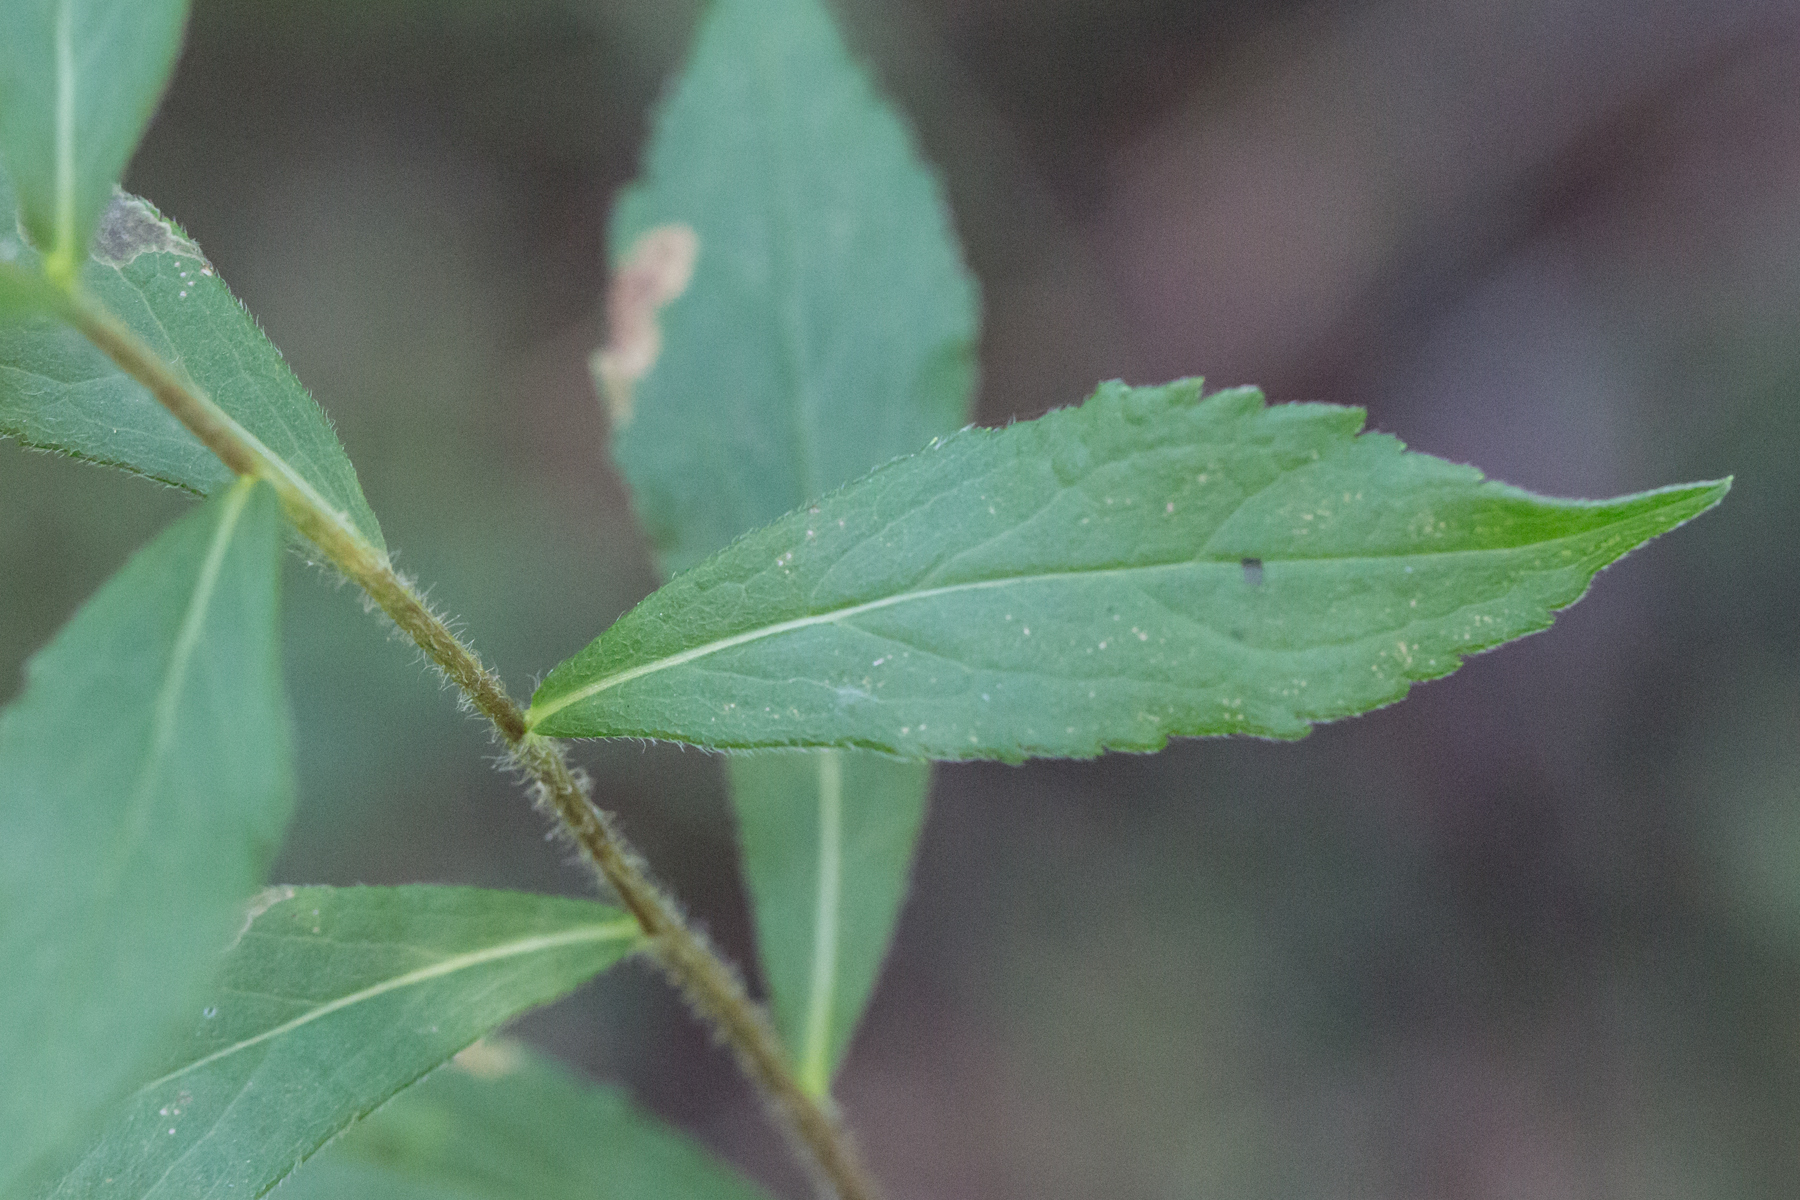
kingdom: Plantae
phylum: Tracheophyta
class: Magnoliopsida
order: Asterales
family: Asteraceae
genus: Solidago
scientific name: Solidago rugosa
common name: Rough-stemmed goldenrod
